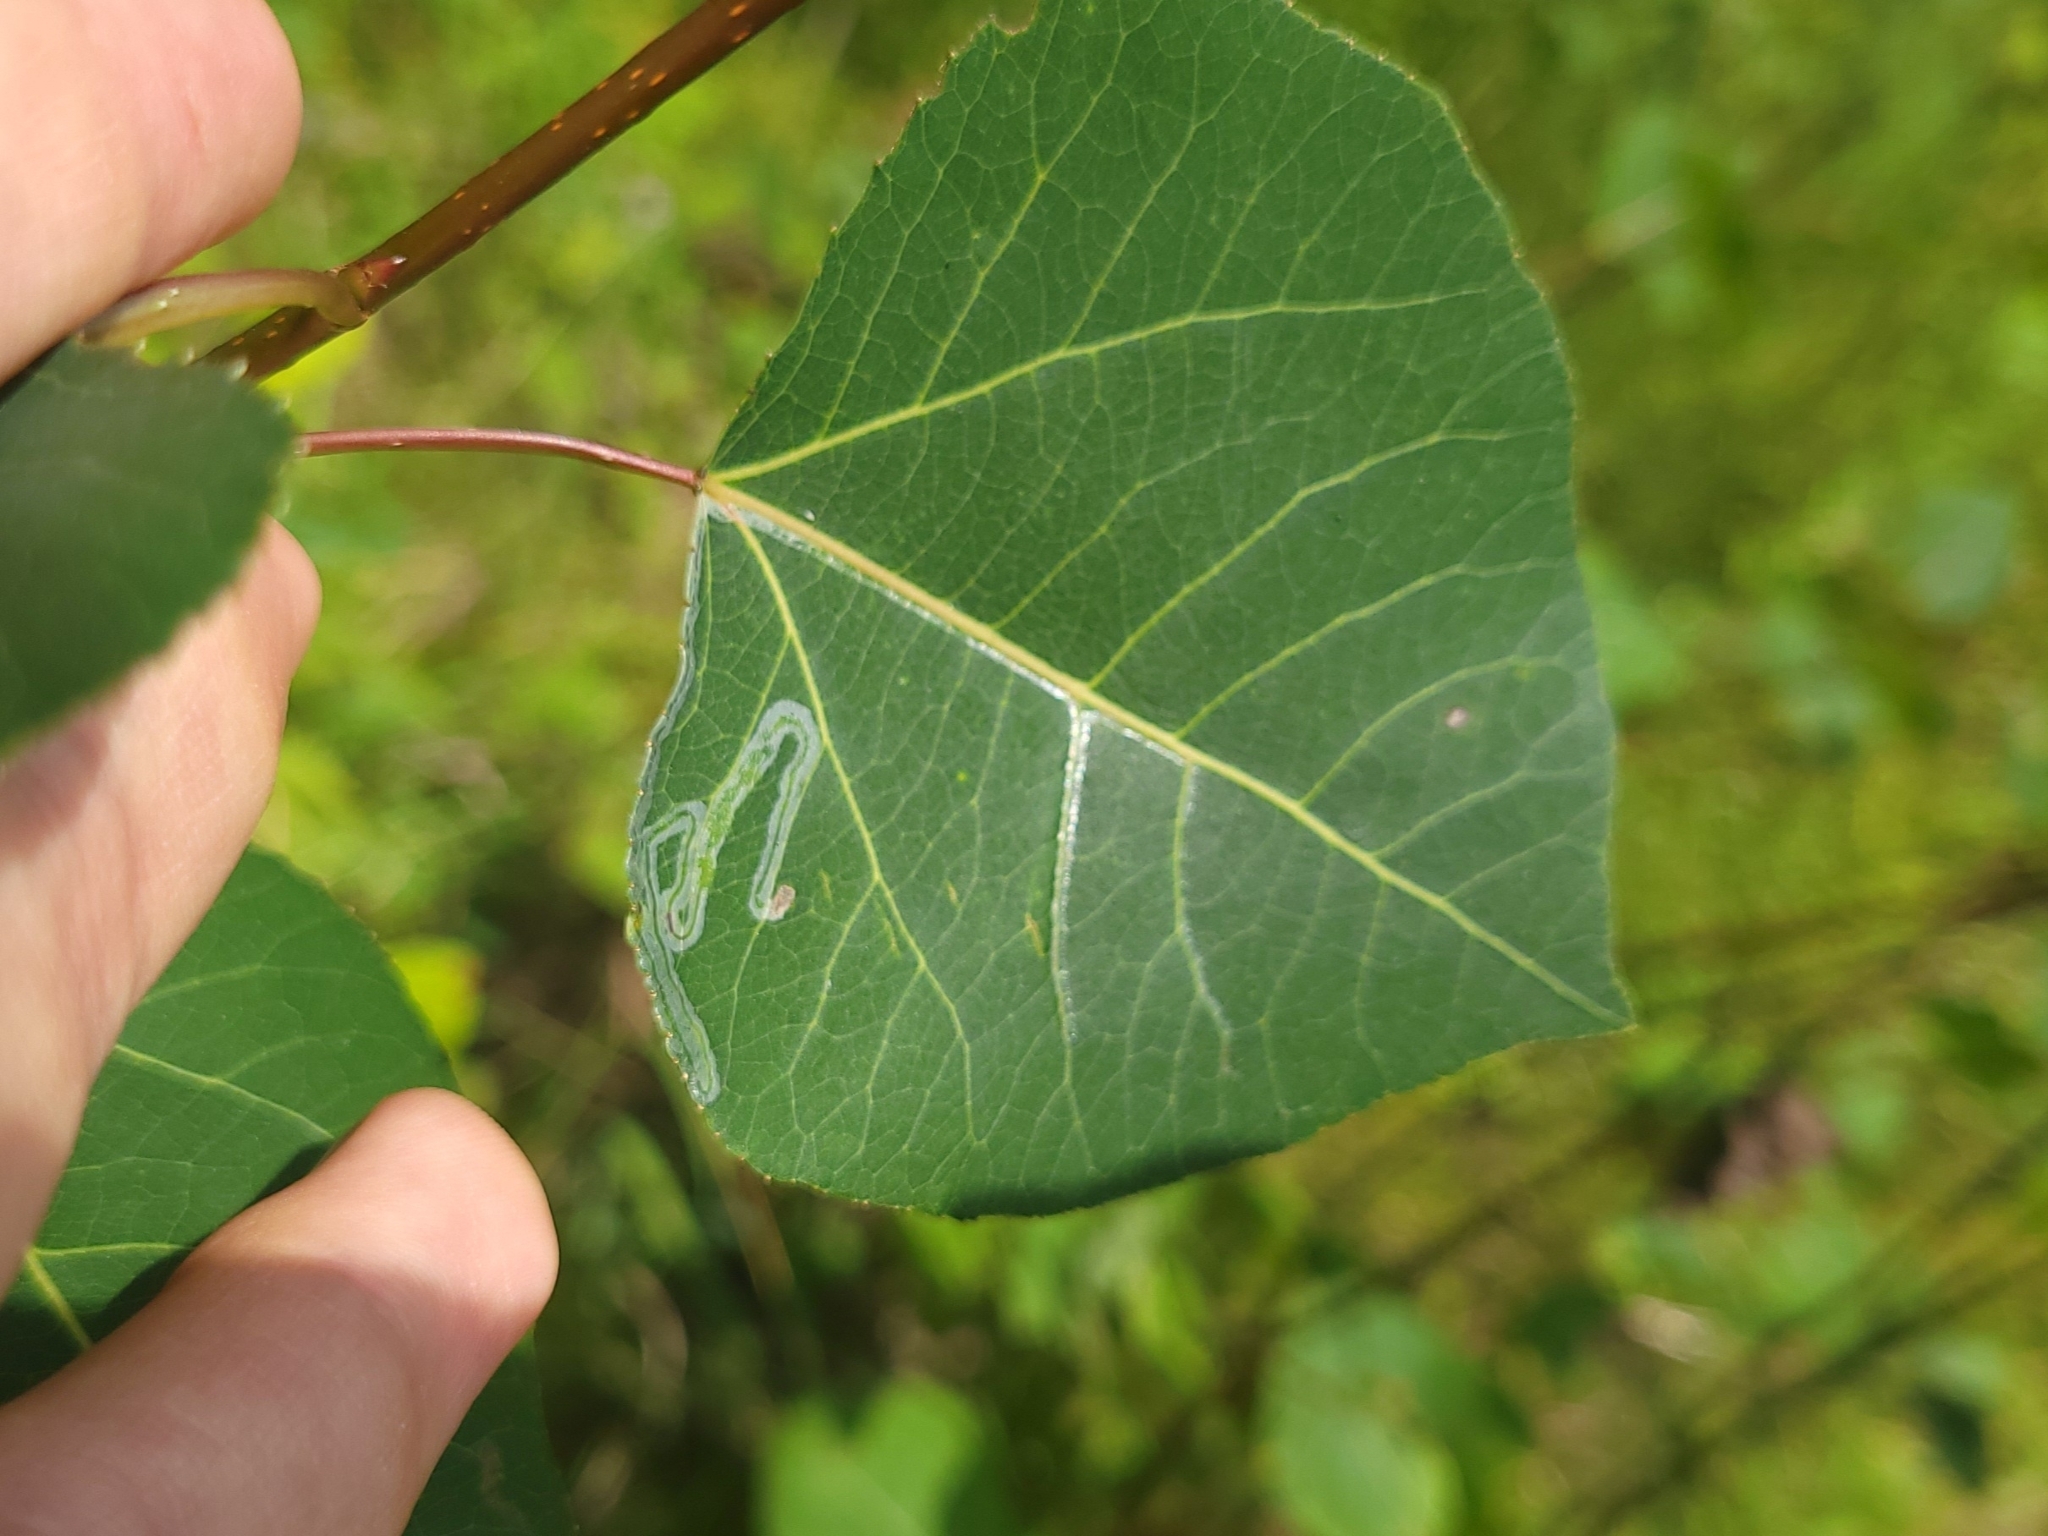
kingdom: Animalia
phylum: Arthropoda
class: Insecta
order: Lepidoptera
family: Gracillariidae
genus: Phyllocnistis
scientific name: Phyllocnistis populiella
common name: Aspen serpentine leafminer moth
